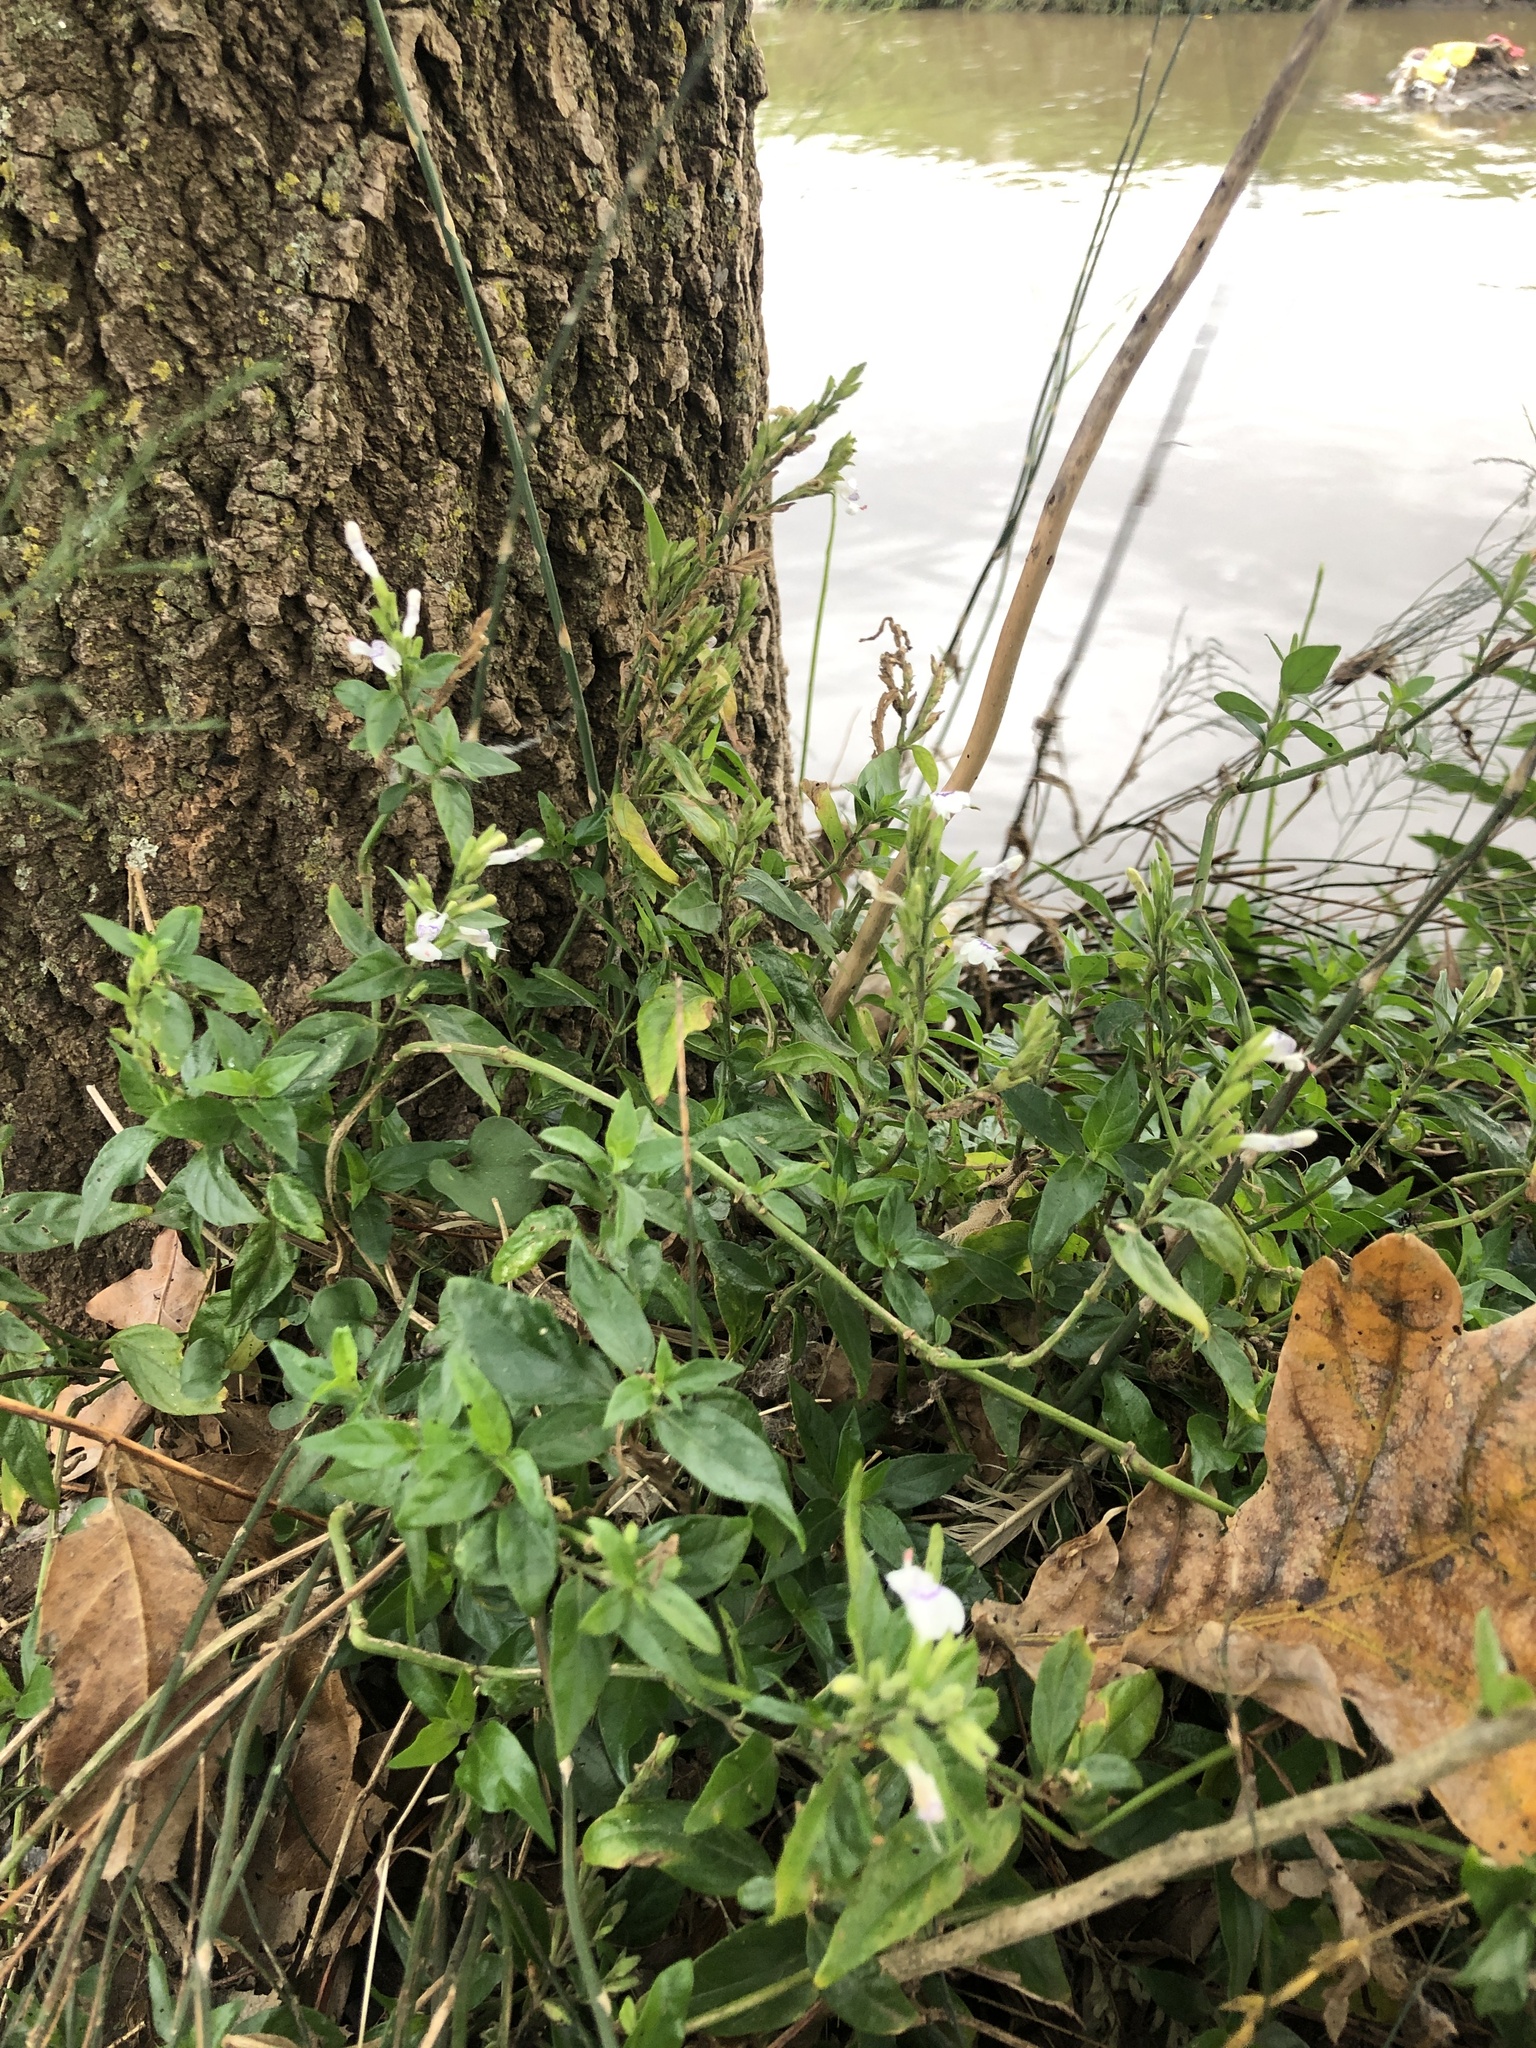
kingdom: Plantae
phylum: Tracheophyta
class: Magnoliopsida
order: Lamiales
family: Acanthaceae
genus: Hypoestes
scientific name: Hypoestes forskaolii
